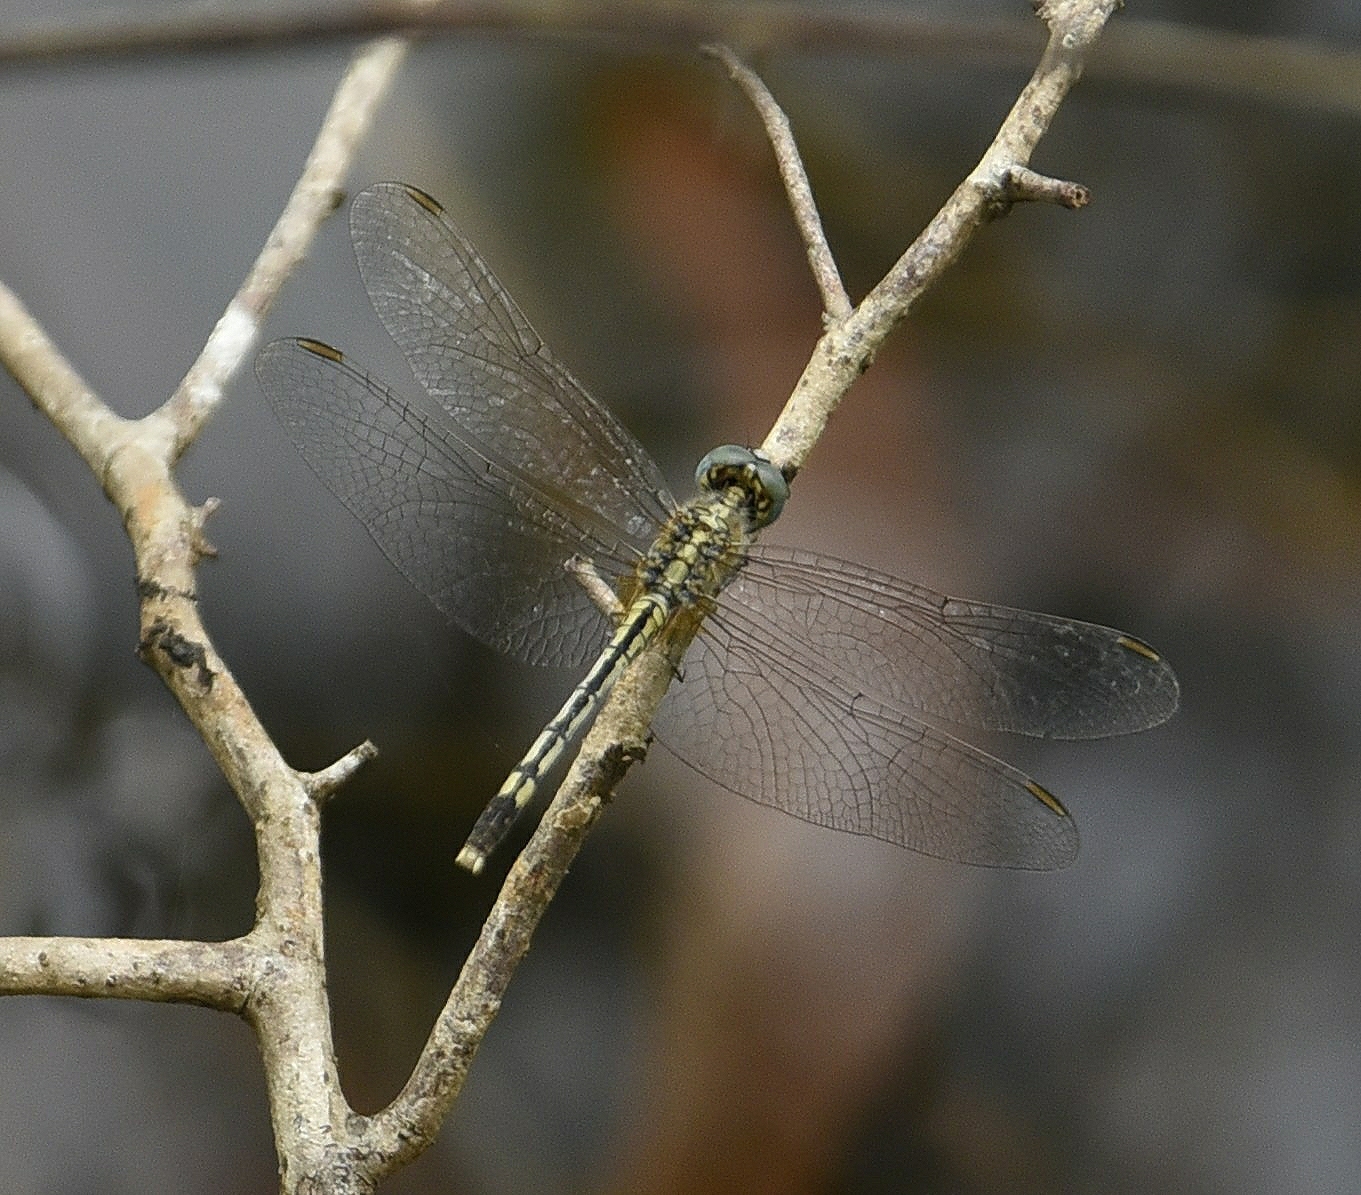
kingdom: Animalia
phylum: Arthropoda
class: Insecta
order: Odonata
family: Libellulidae
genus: Diplacodes
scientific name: Diplacodes trivialis
